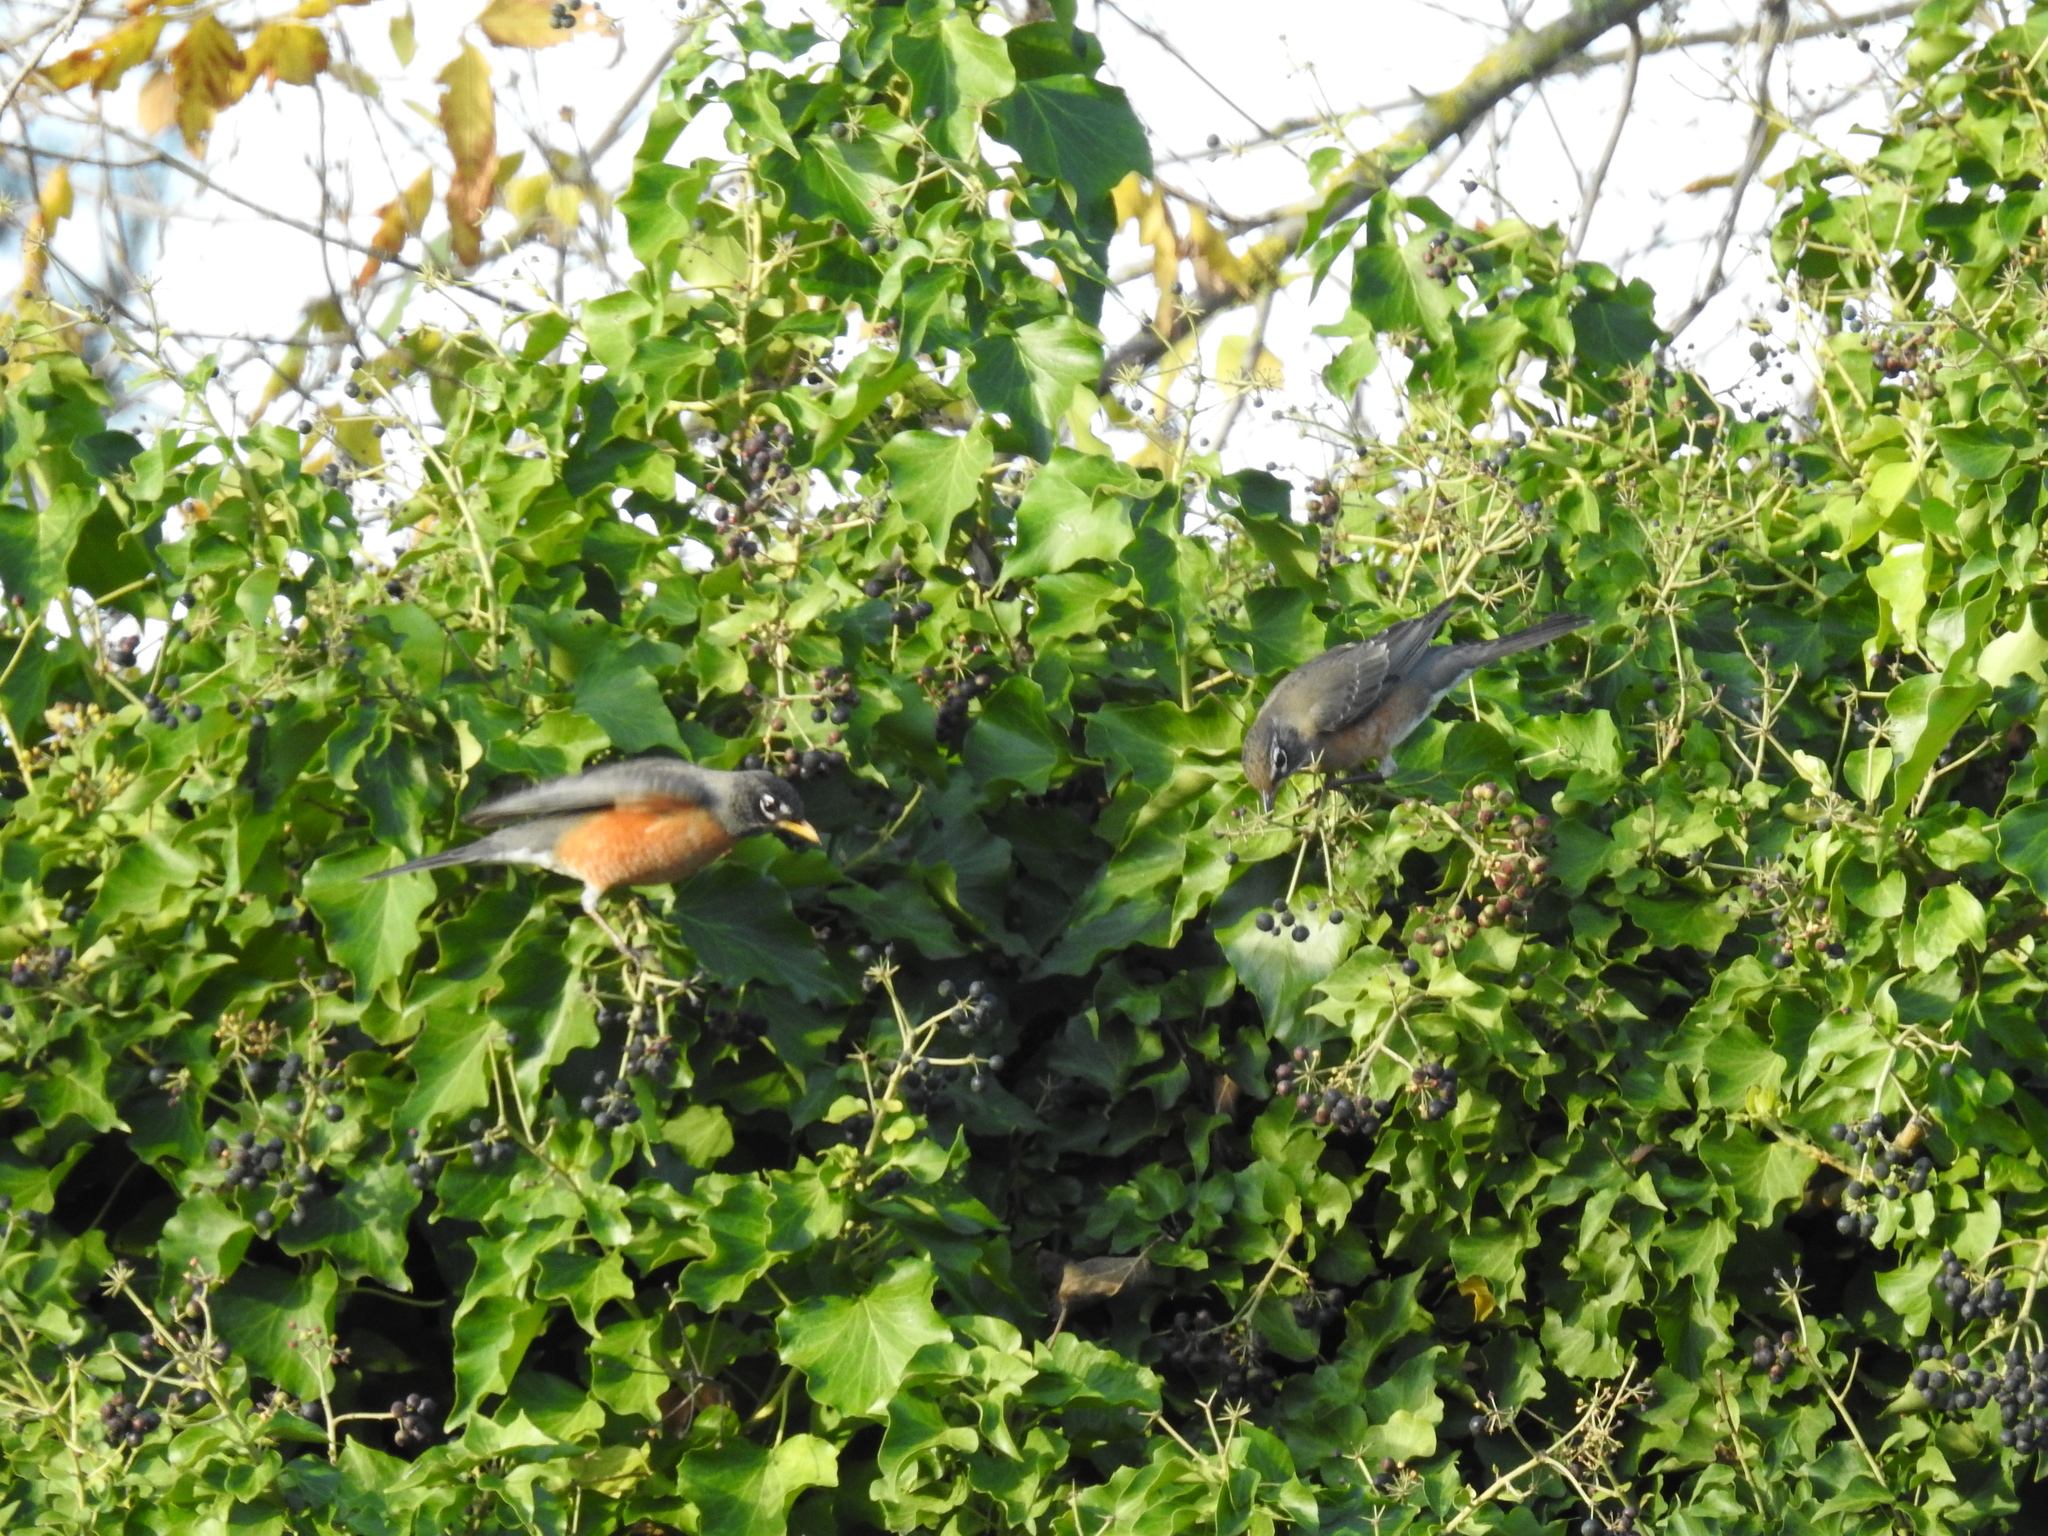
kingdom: Animalia
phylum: Chordata
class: Aves
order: Passeriformes
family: Turdidae
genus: Turdus
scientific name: Turdus migratorius
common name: American robin
